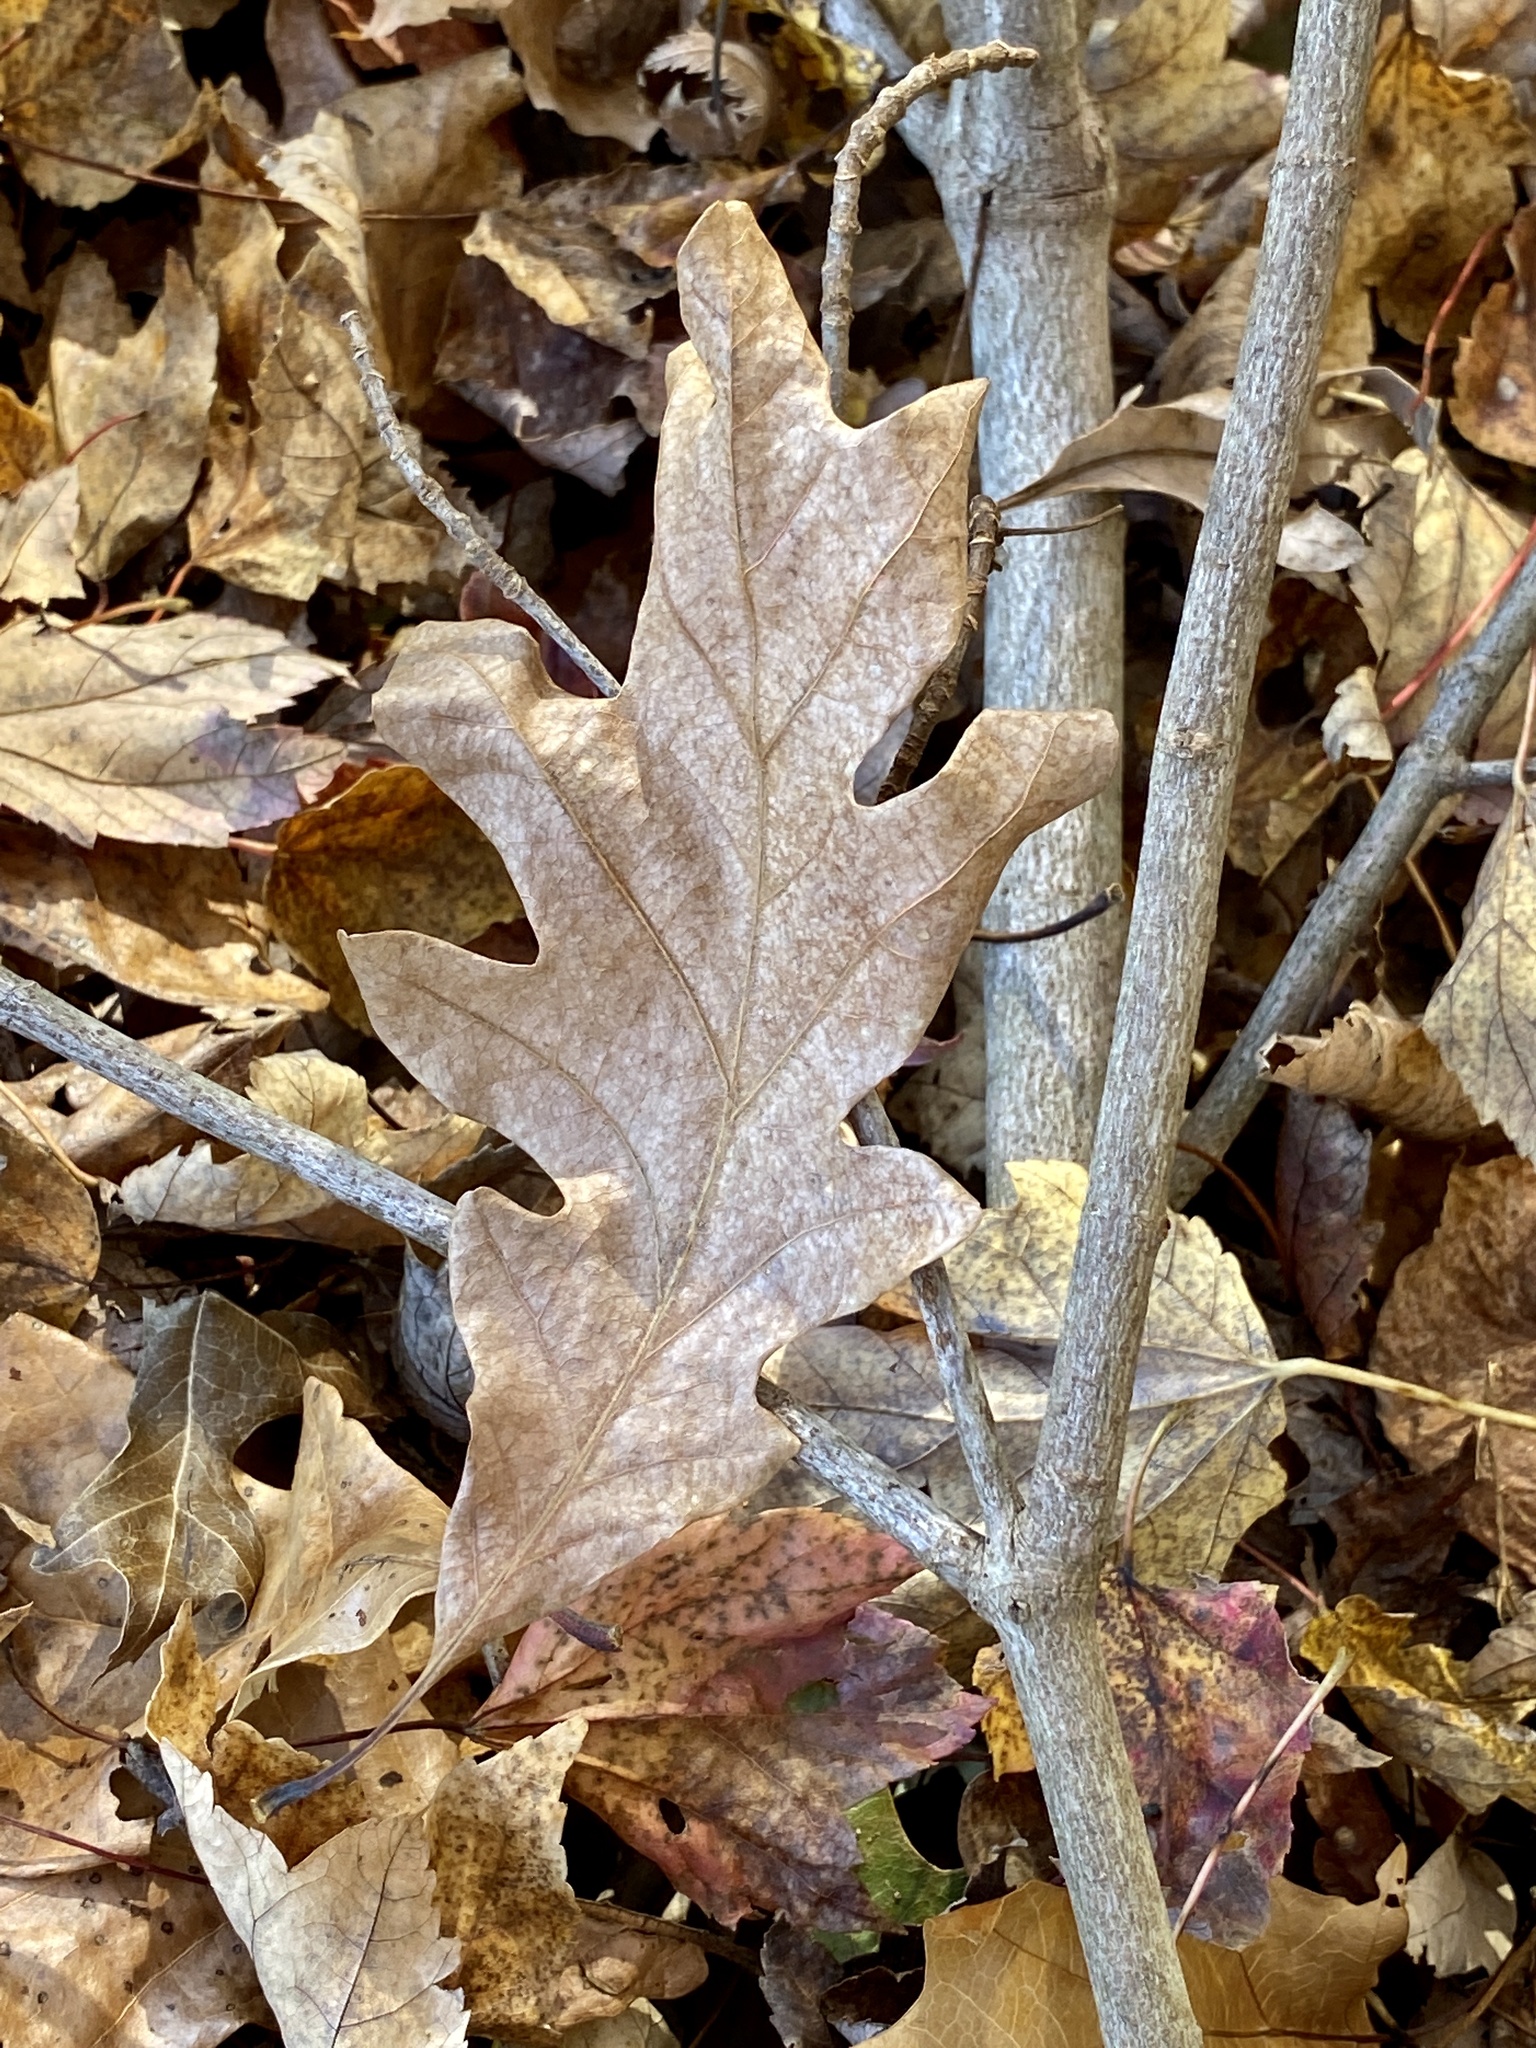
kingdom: Plantae
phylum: Tracheophyta
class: Magnoliopsida
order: Fagales
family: Fagaceae
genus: Quercus
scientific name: Quercus alba
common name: White oak
